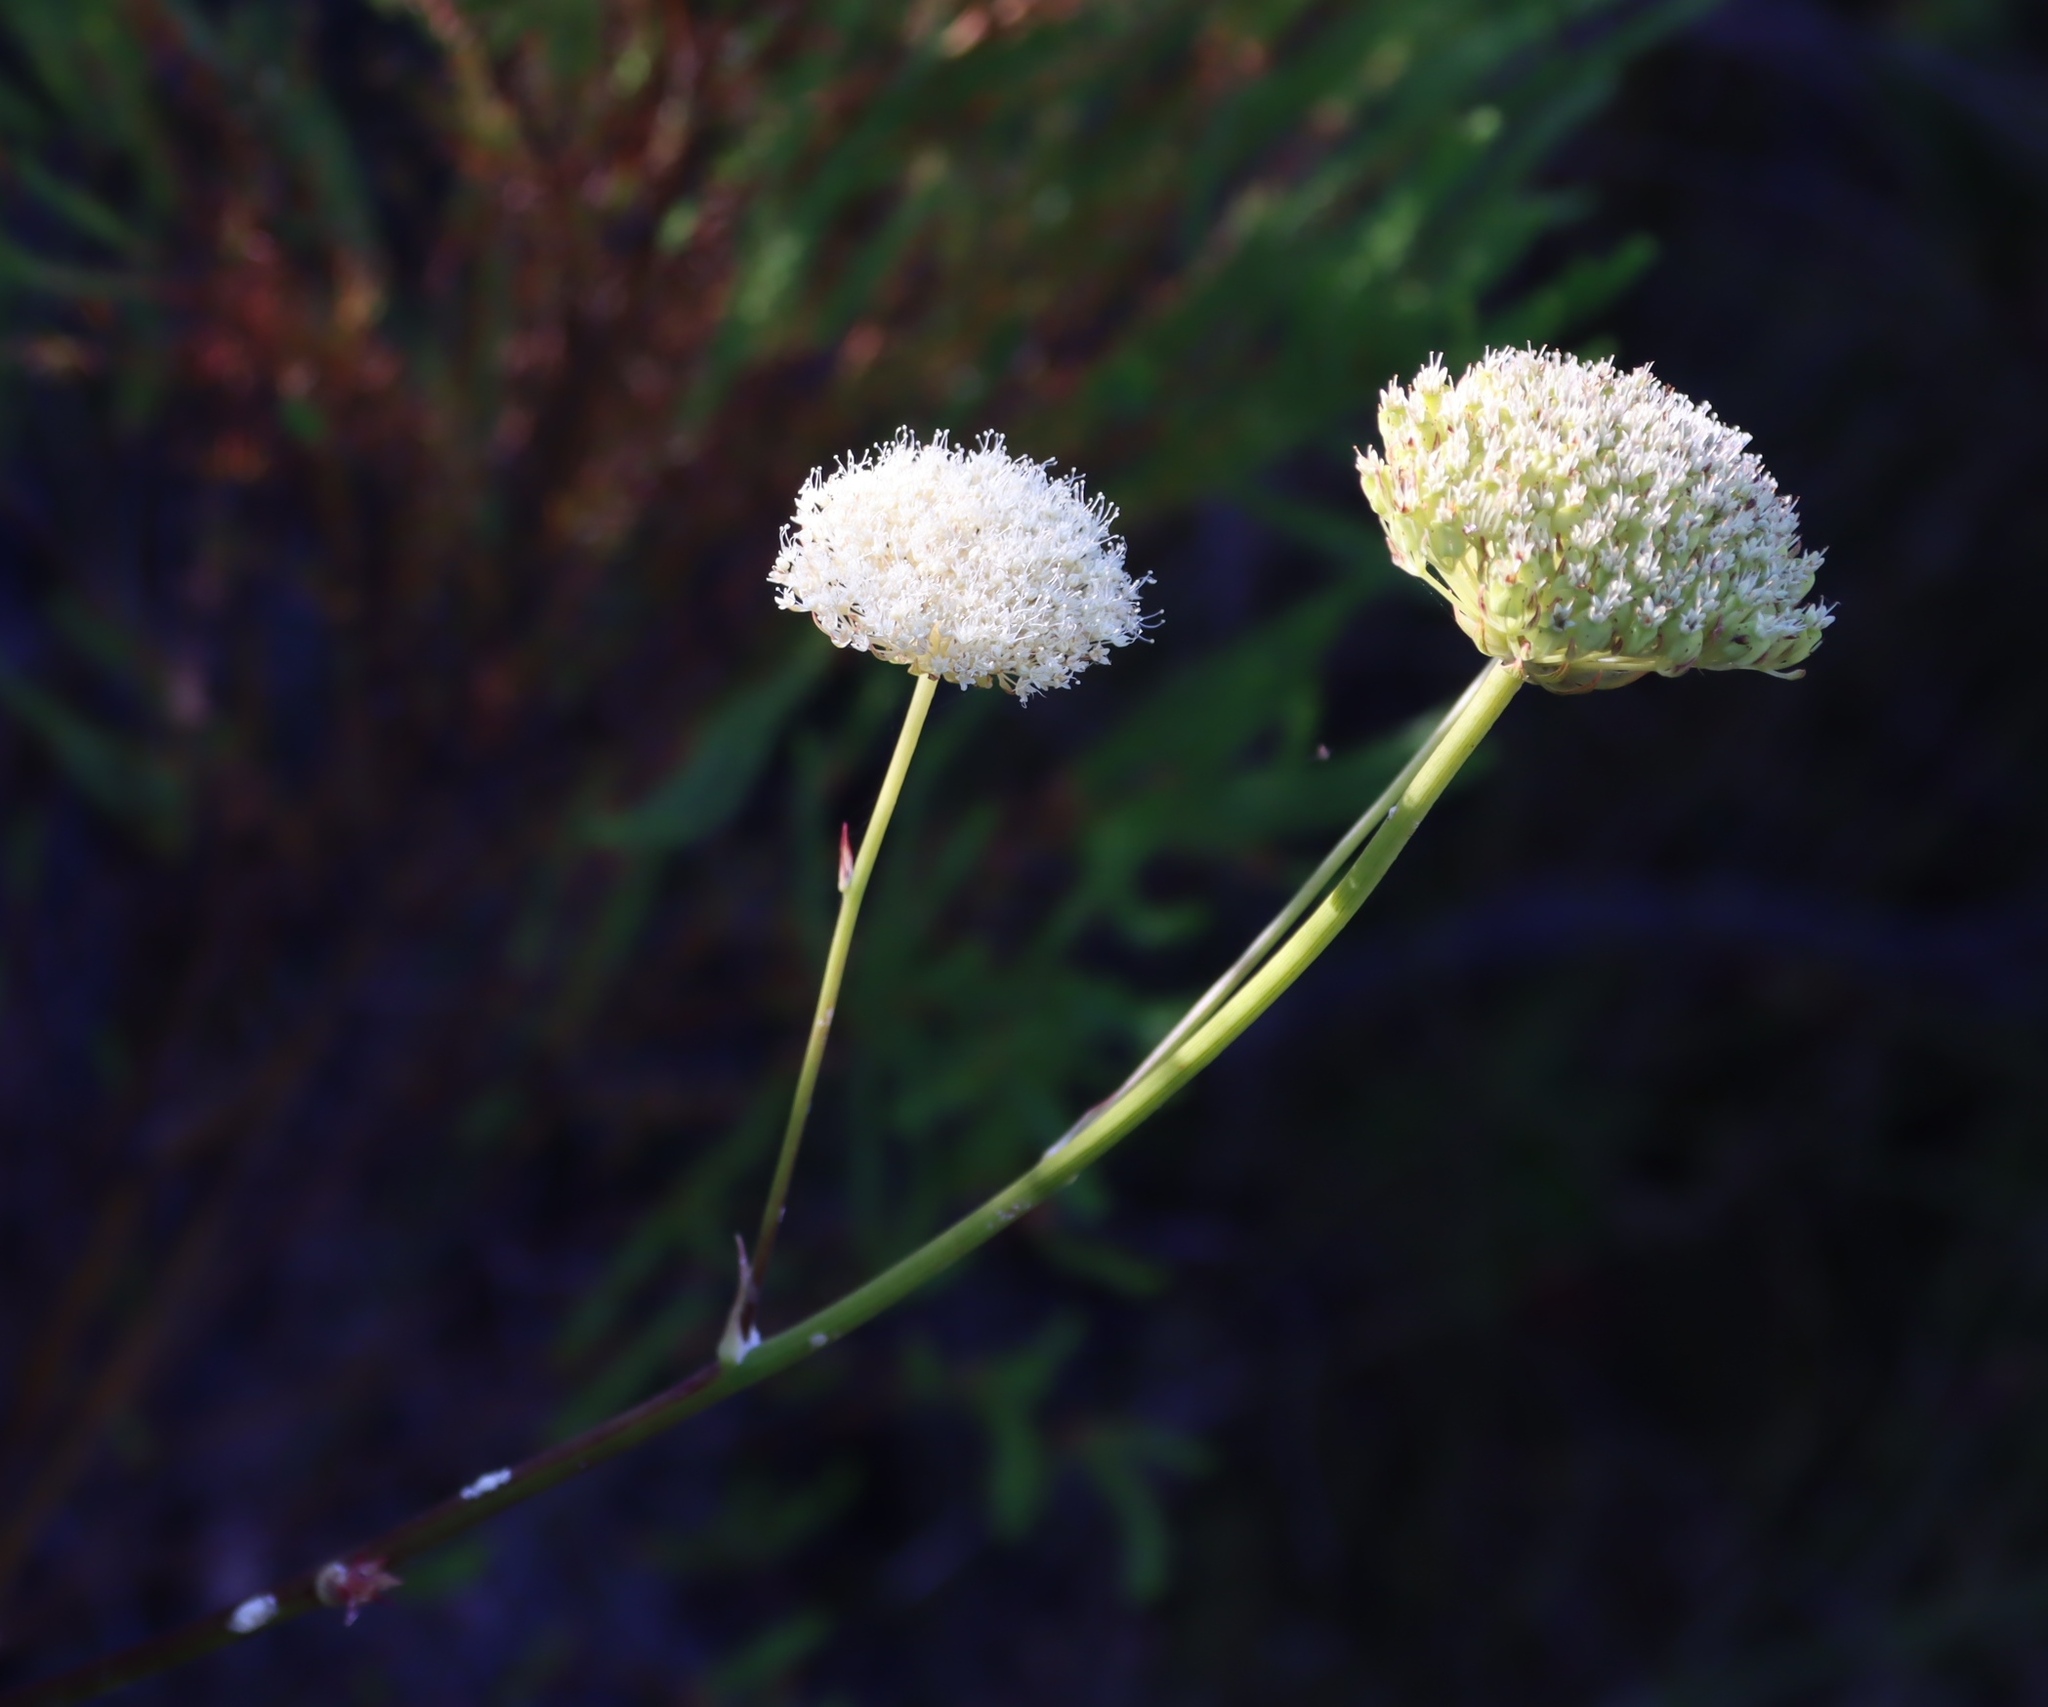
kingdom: Plantae
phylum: Tracheophyta
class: Magnoliopsida
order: Apiales
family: Apiaceae
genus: Hermas
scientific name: Hermas villosa
